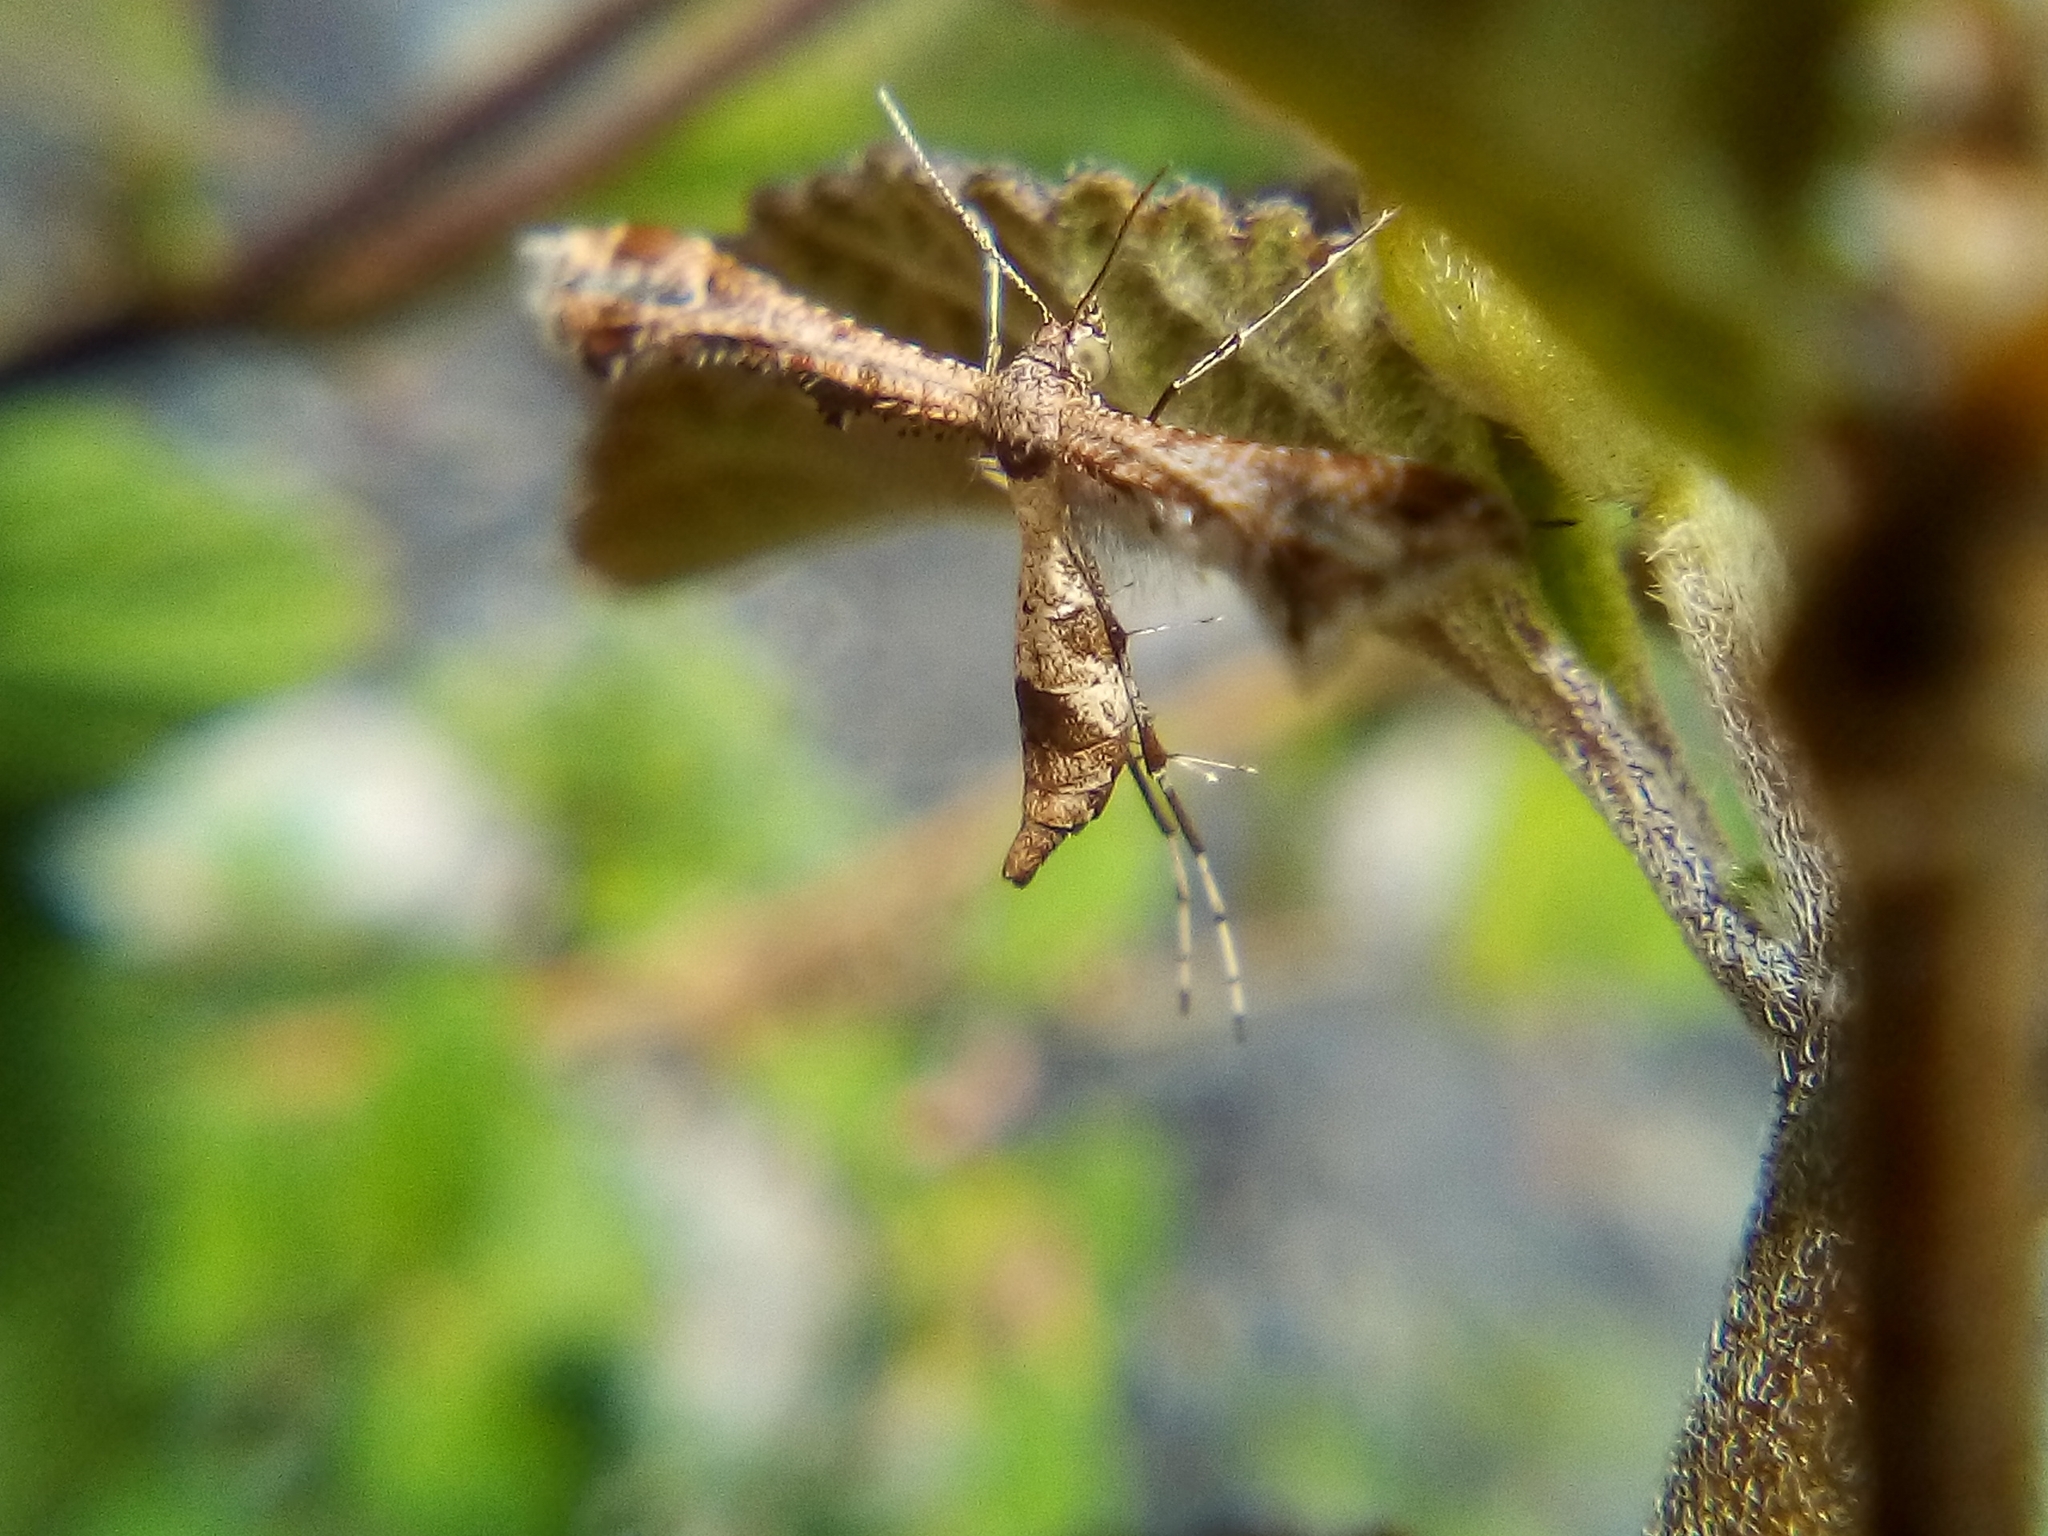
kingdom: Animalia
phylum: Arthropoda
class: Insecta
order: Lepidoptera
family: Pterophoridae
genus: Lantanophaga
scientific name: Lantanophaga pusillidactylus
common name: Moth
